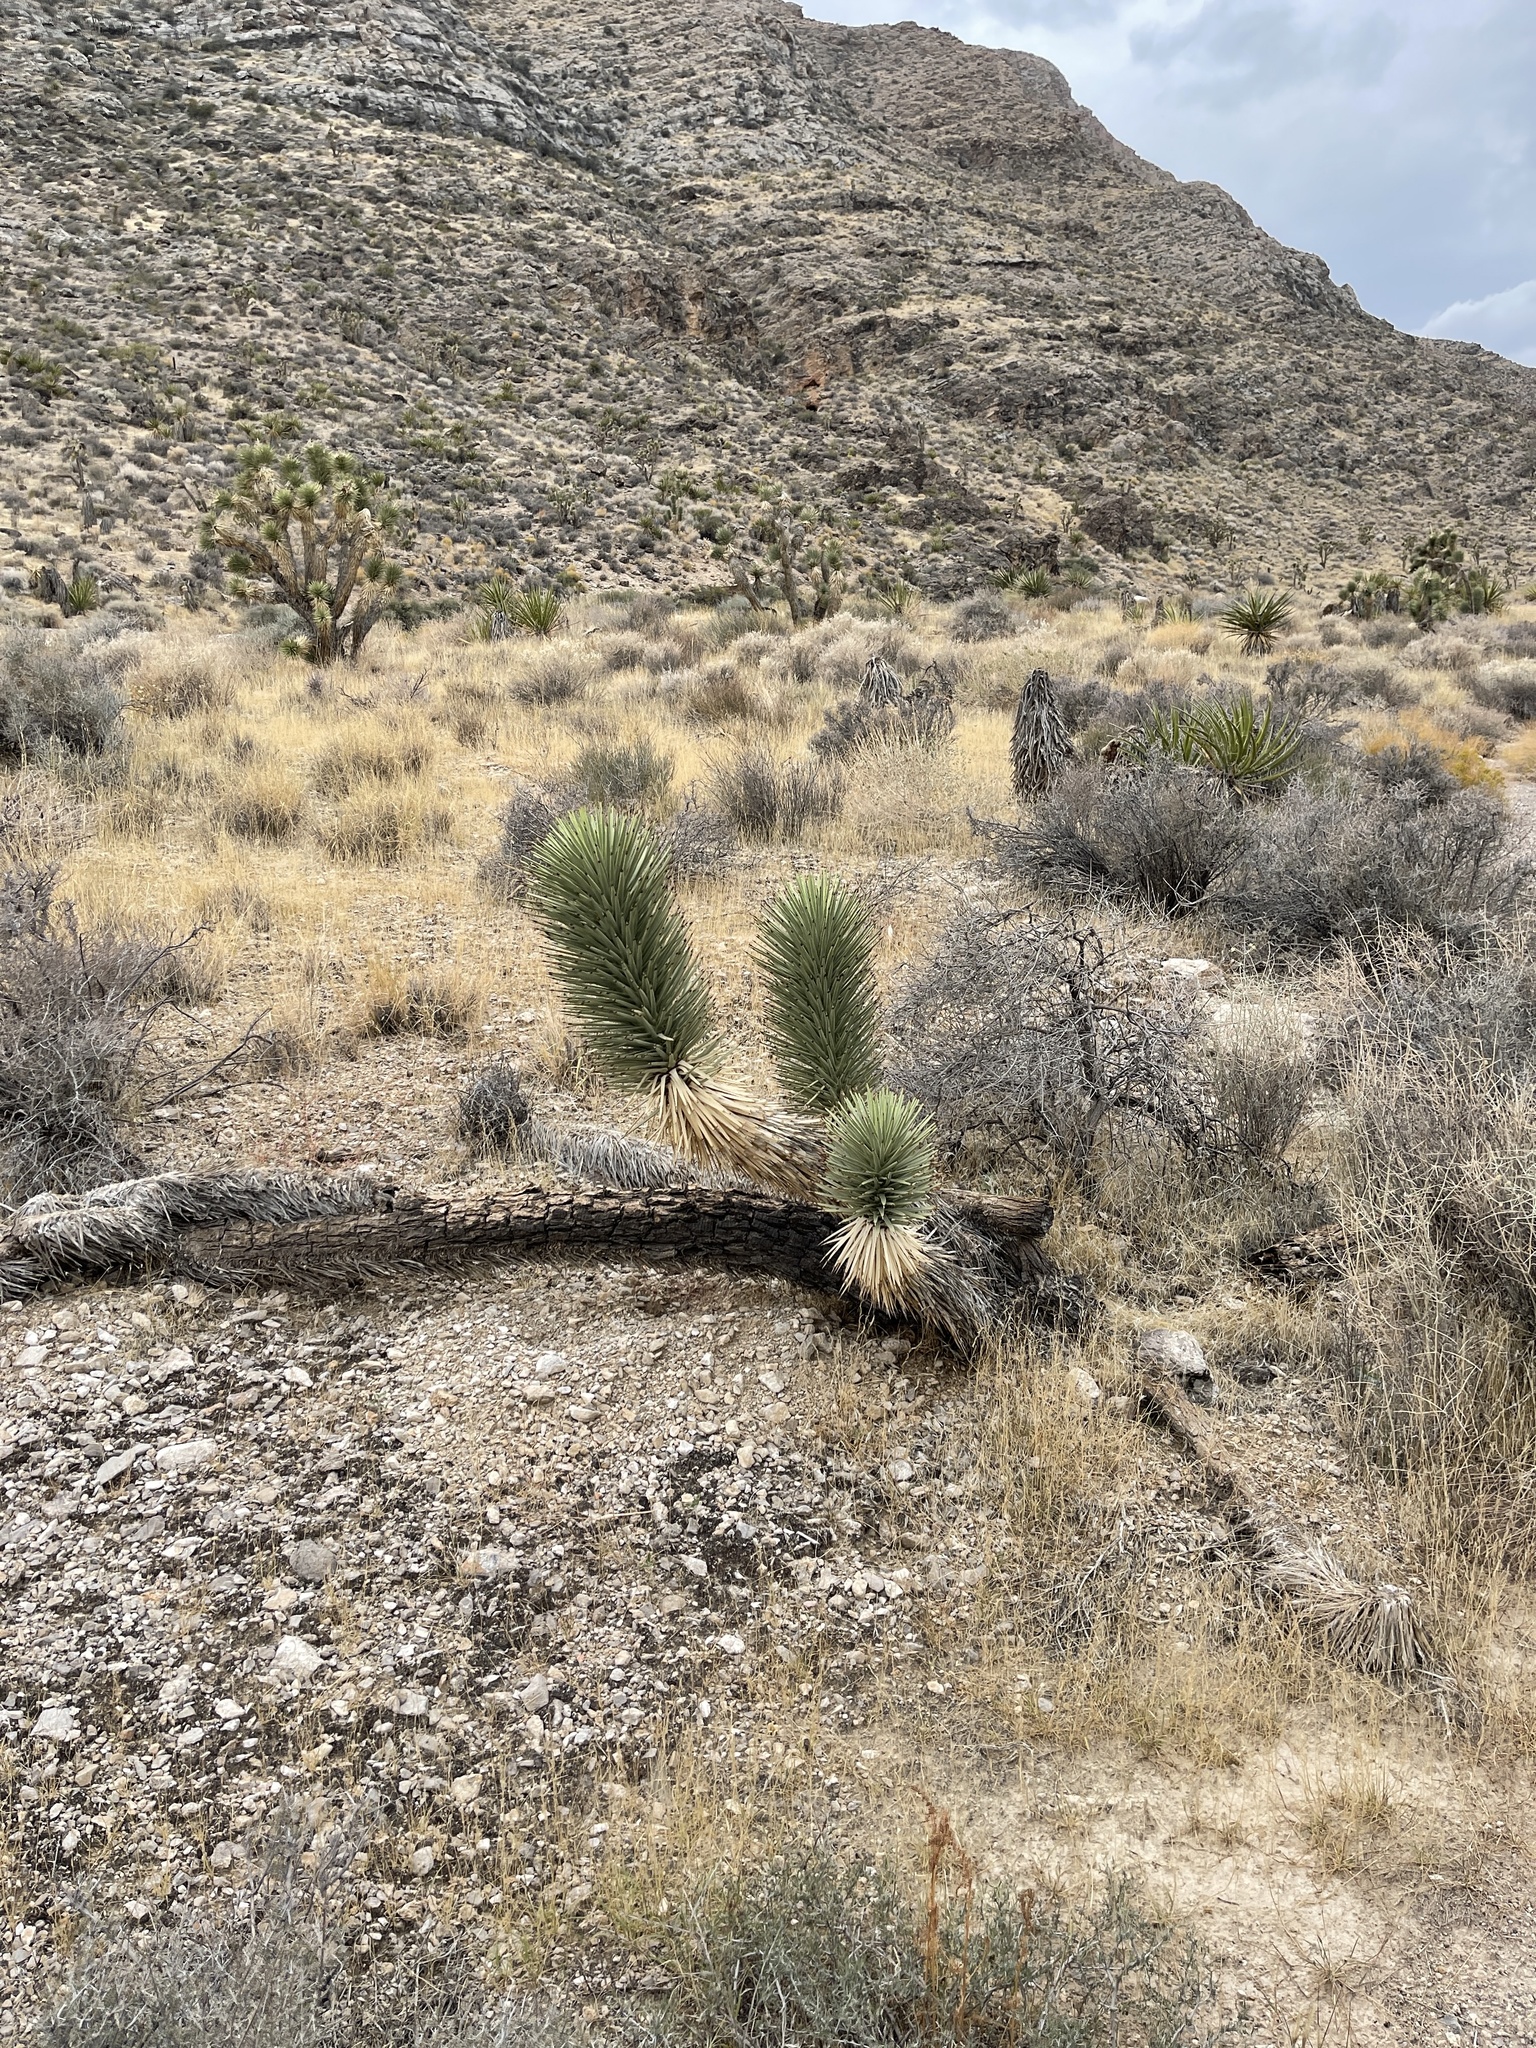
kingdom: Plantae
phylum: Tracheophyta
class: Liliopsida
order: Asparagales
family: Asparagaceae
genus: Yucca
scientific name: Yucca brevifolia
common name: Joshua tree
